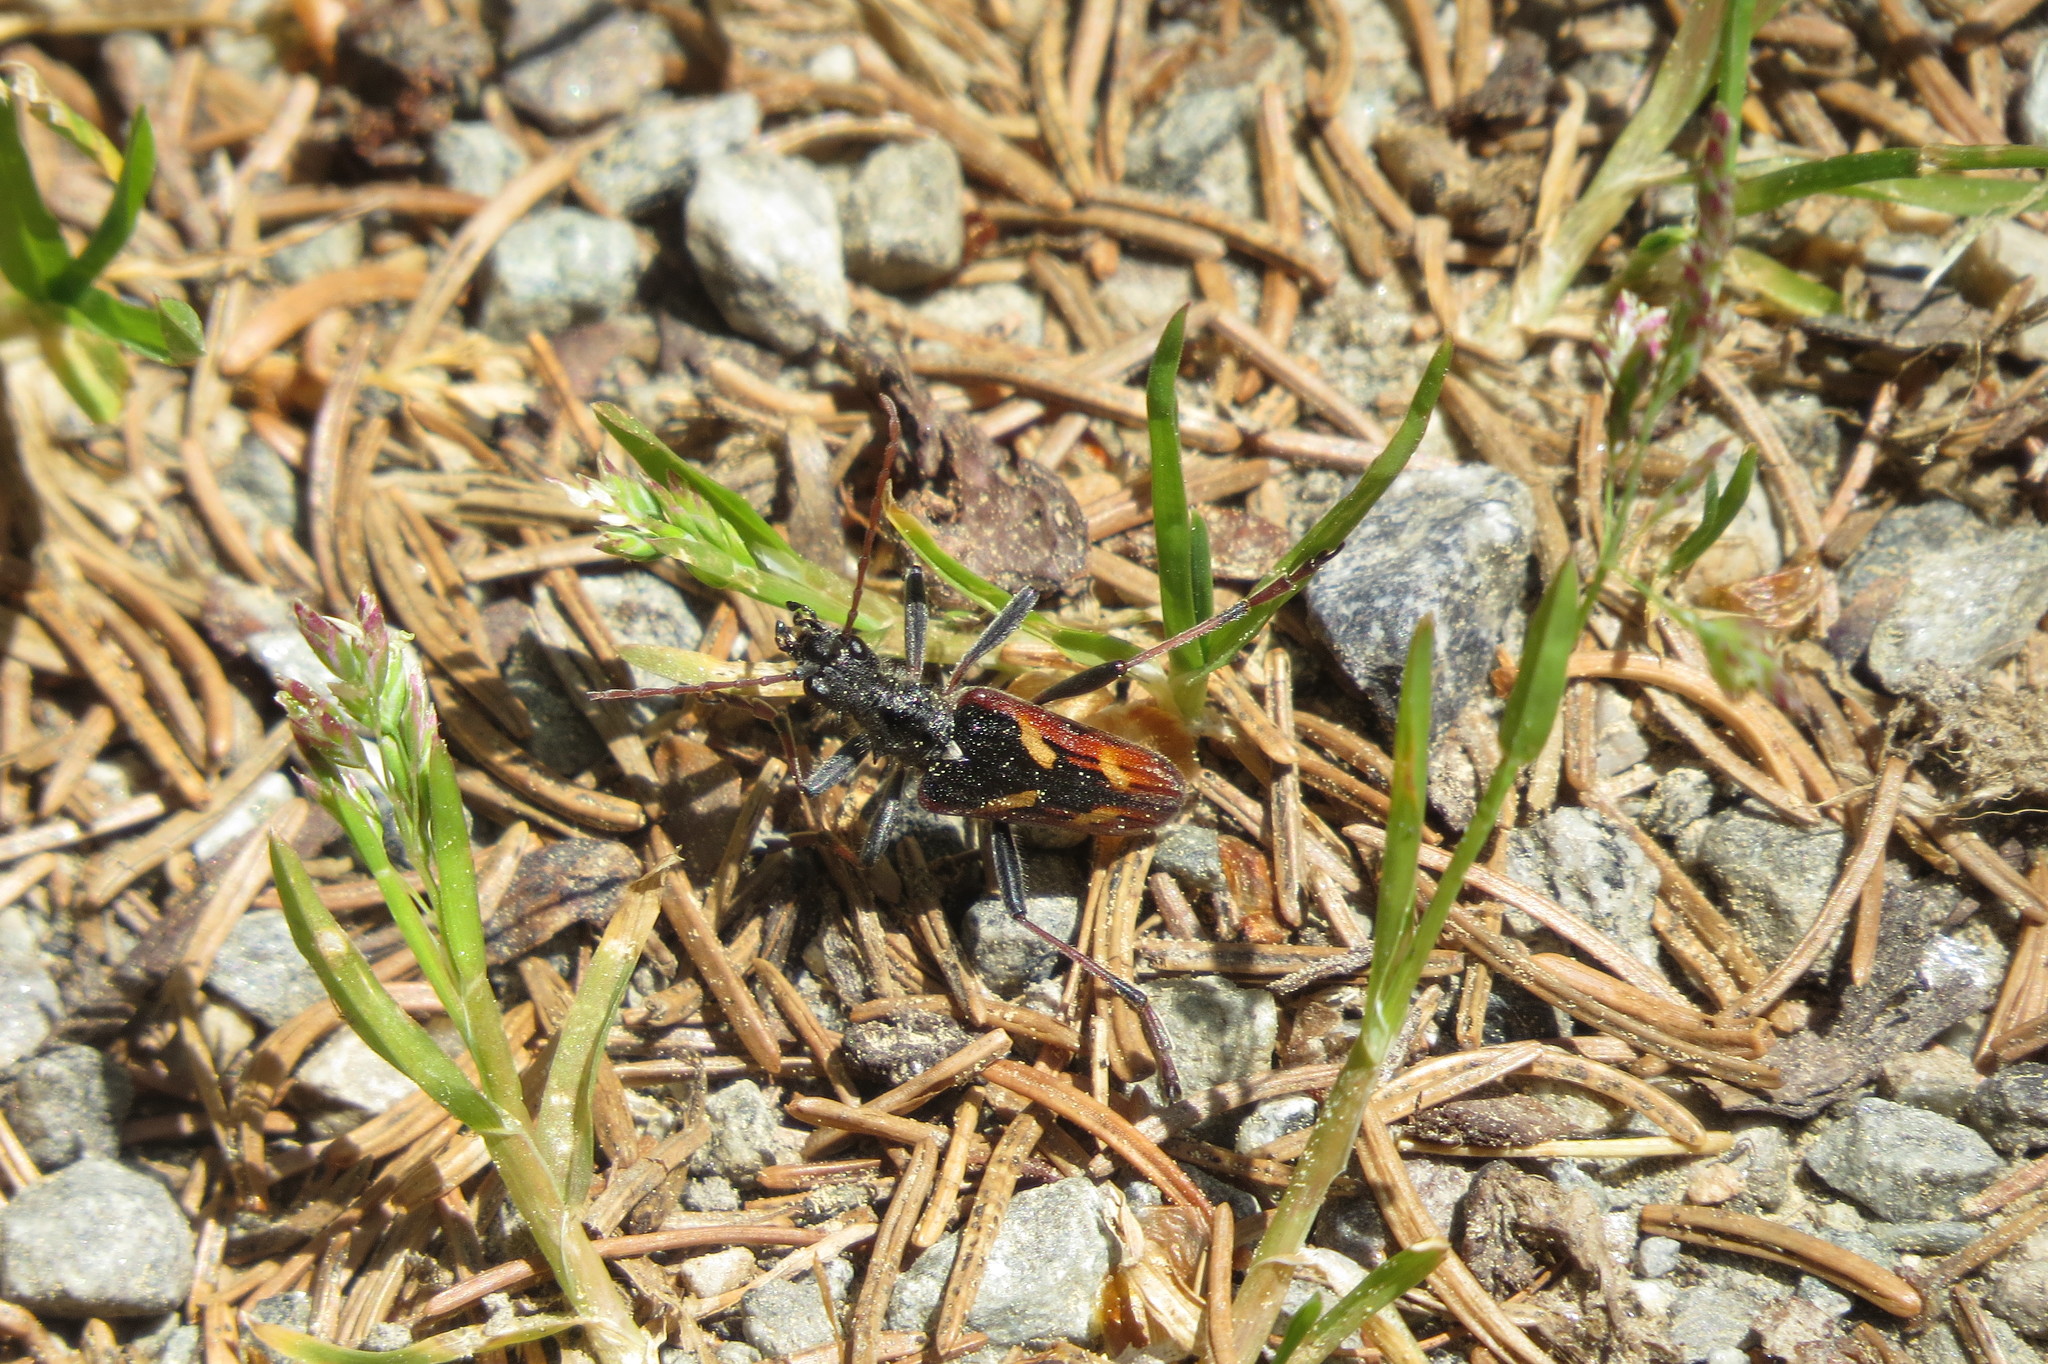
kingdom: Animalia
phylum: Arthropoda
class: Insecta
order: Coleoptera
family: Cerambycidae
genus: Rhagium
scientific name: Rhagium bifasciatum
